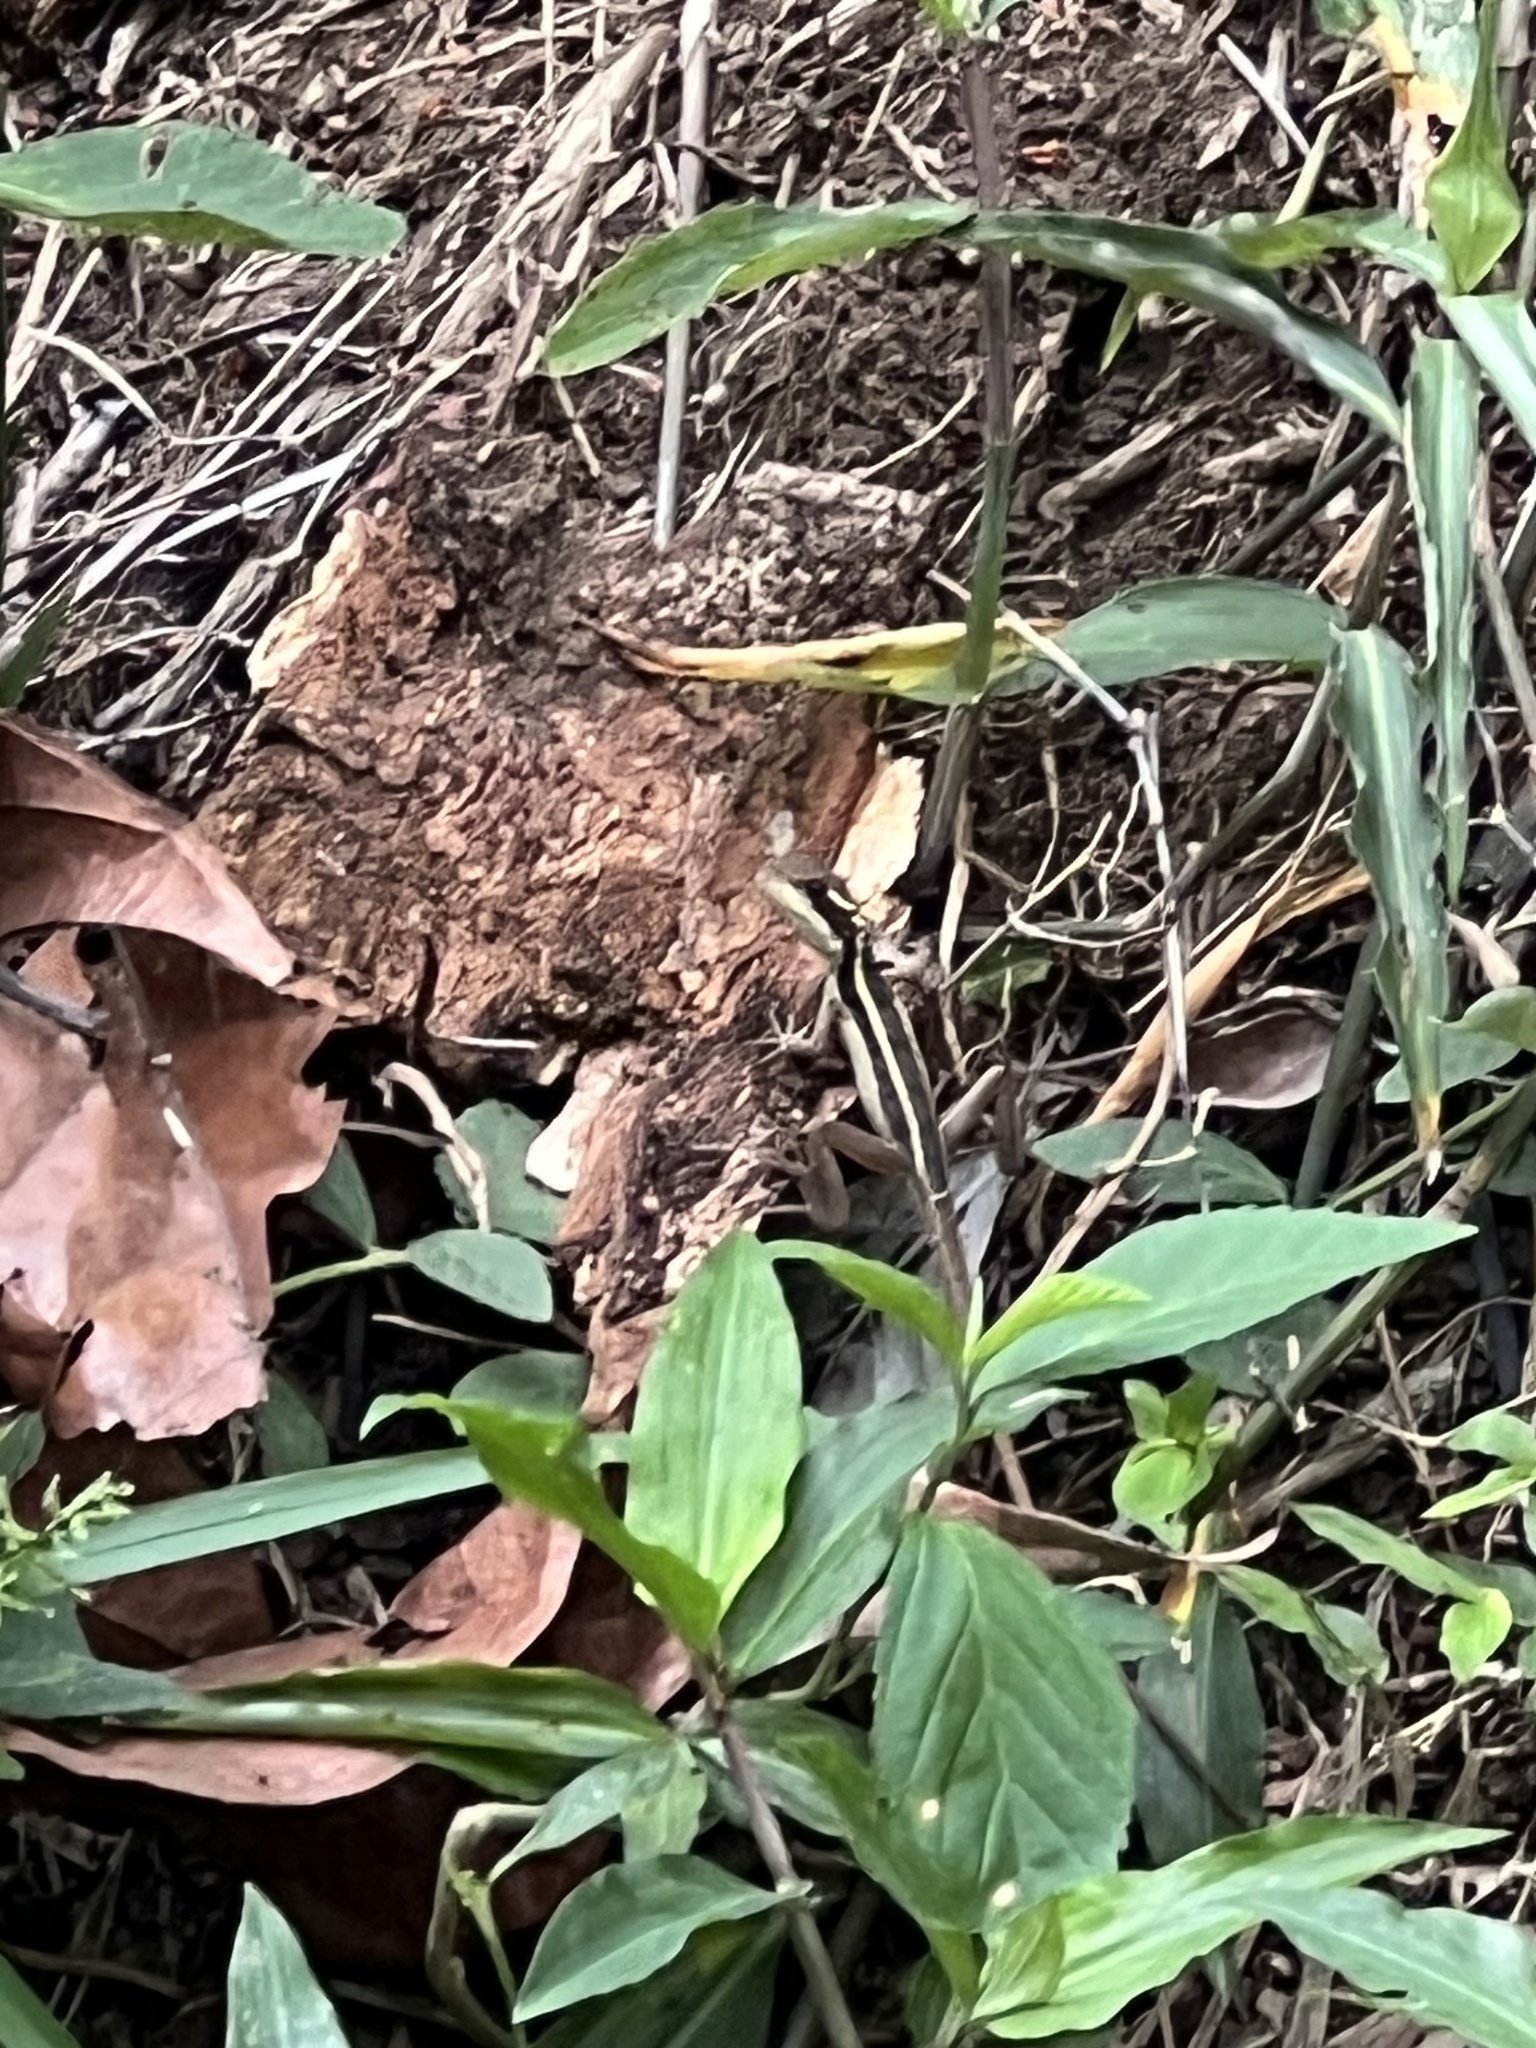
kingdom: Animalia
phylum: Chordata
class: Squamata
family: Corytophanidae
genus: Basiliscus
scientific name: Basiliscus vittatus
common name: Brown basilisk
